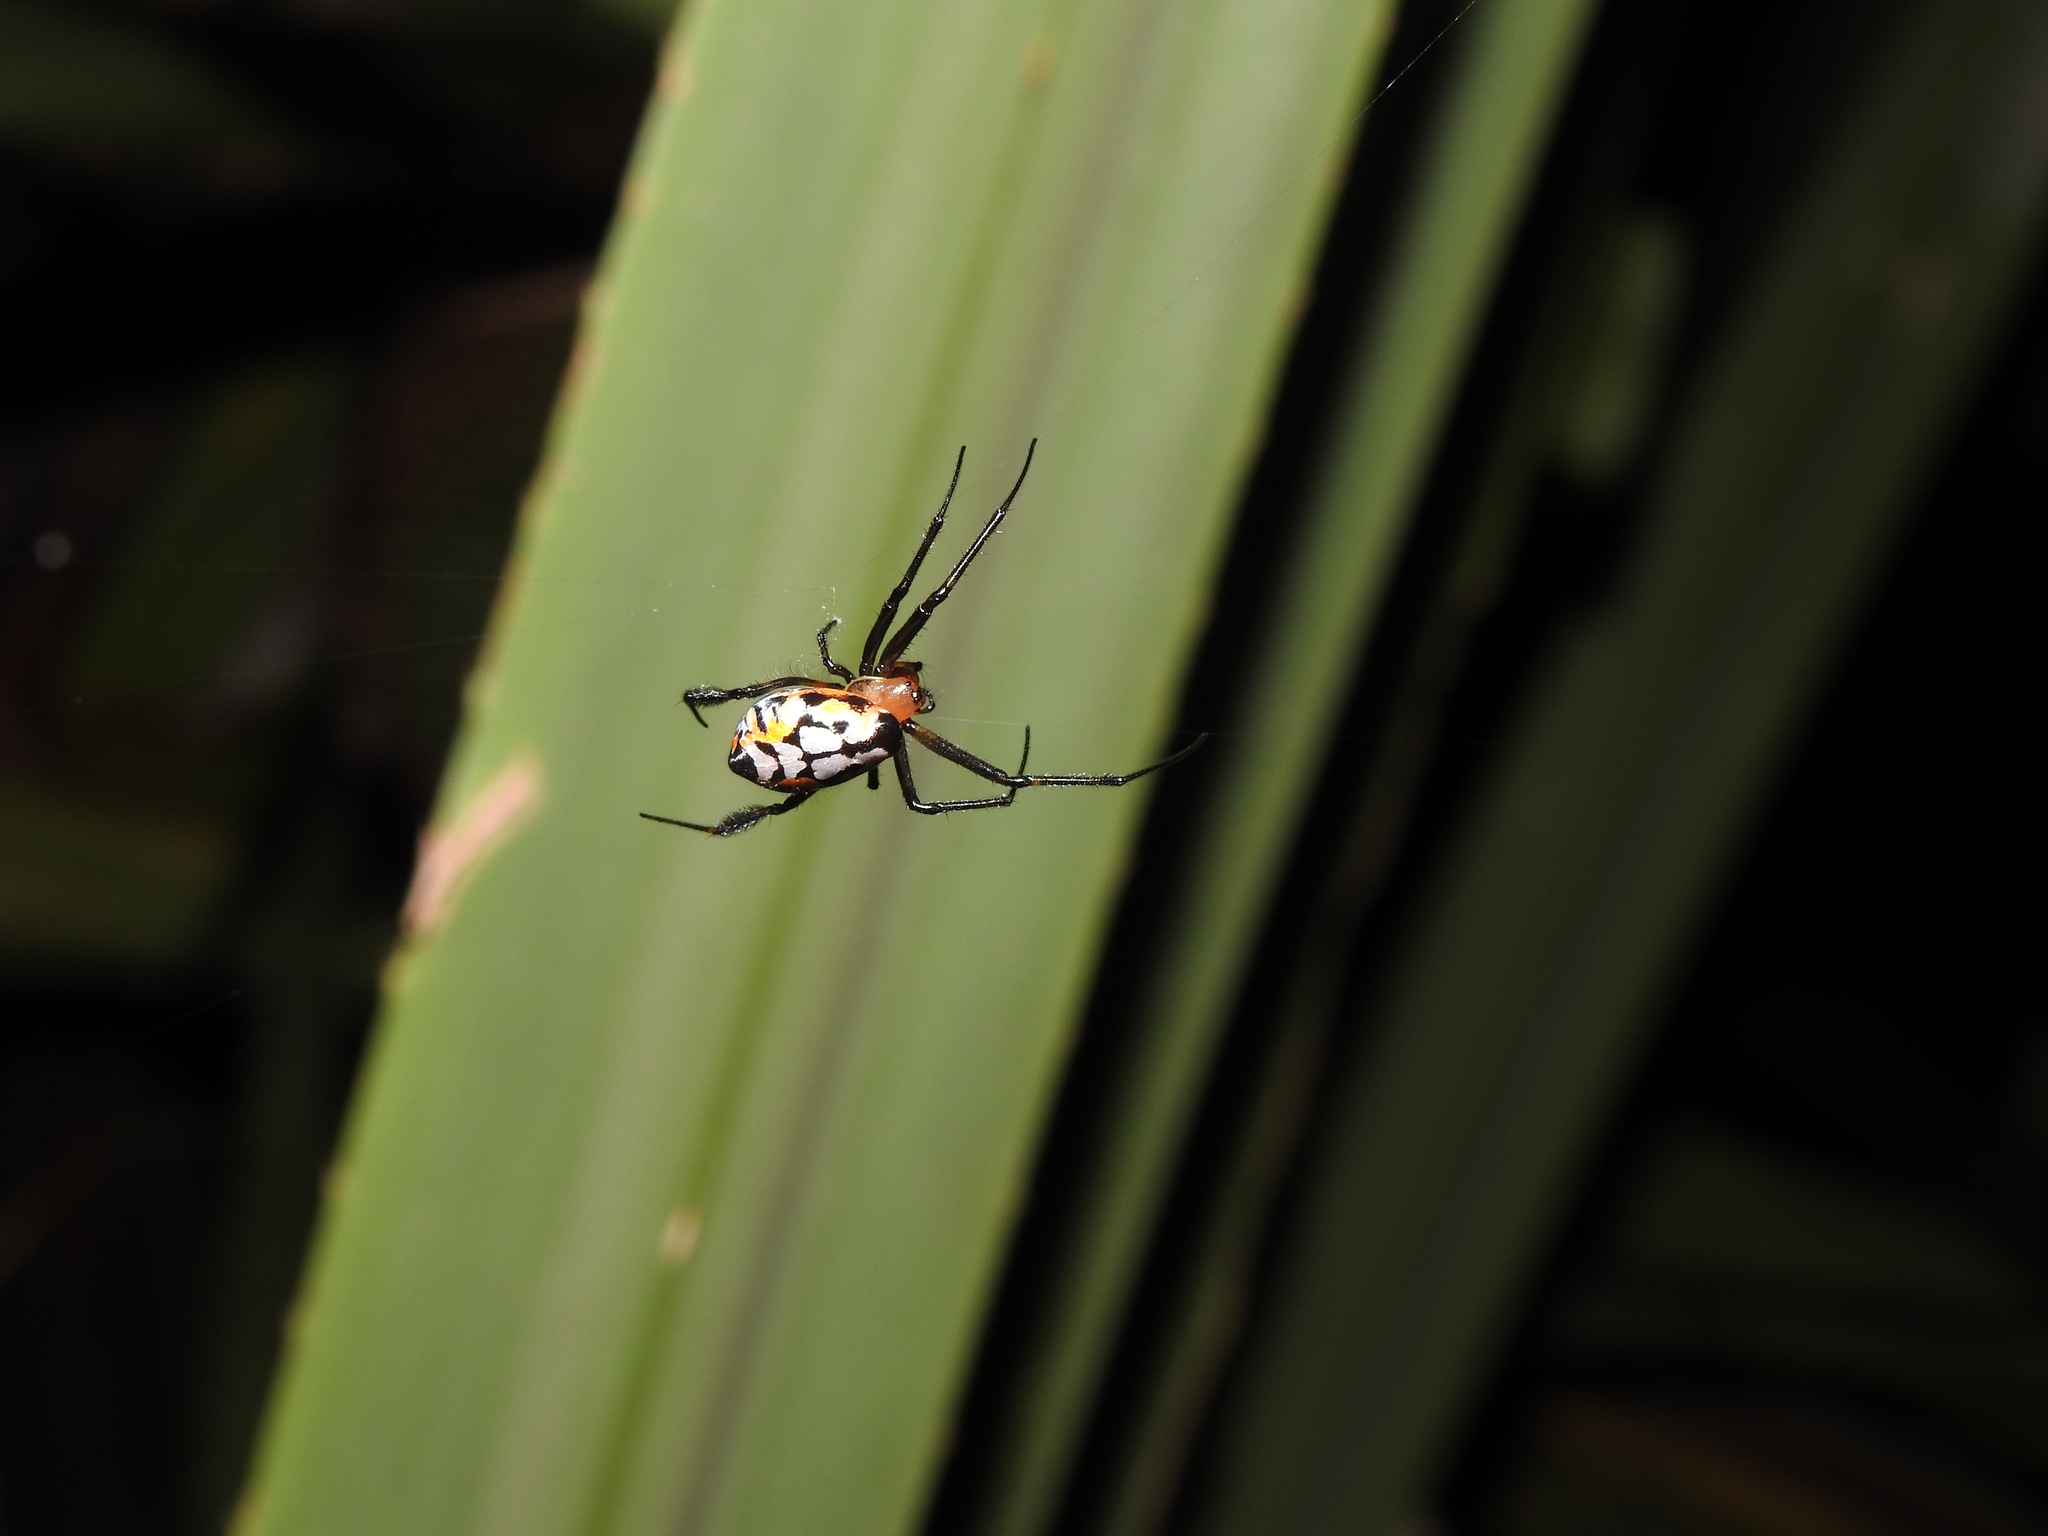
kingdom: Animalia
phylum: Arthropoda
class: Arachnida
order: Araneae
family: Tetragnathidae
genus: Leucauge
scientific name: Leucauge fastigata
